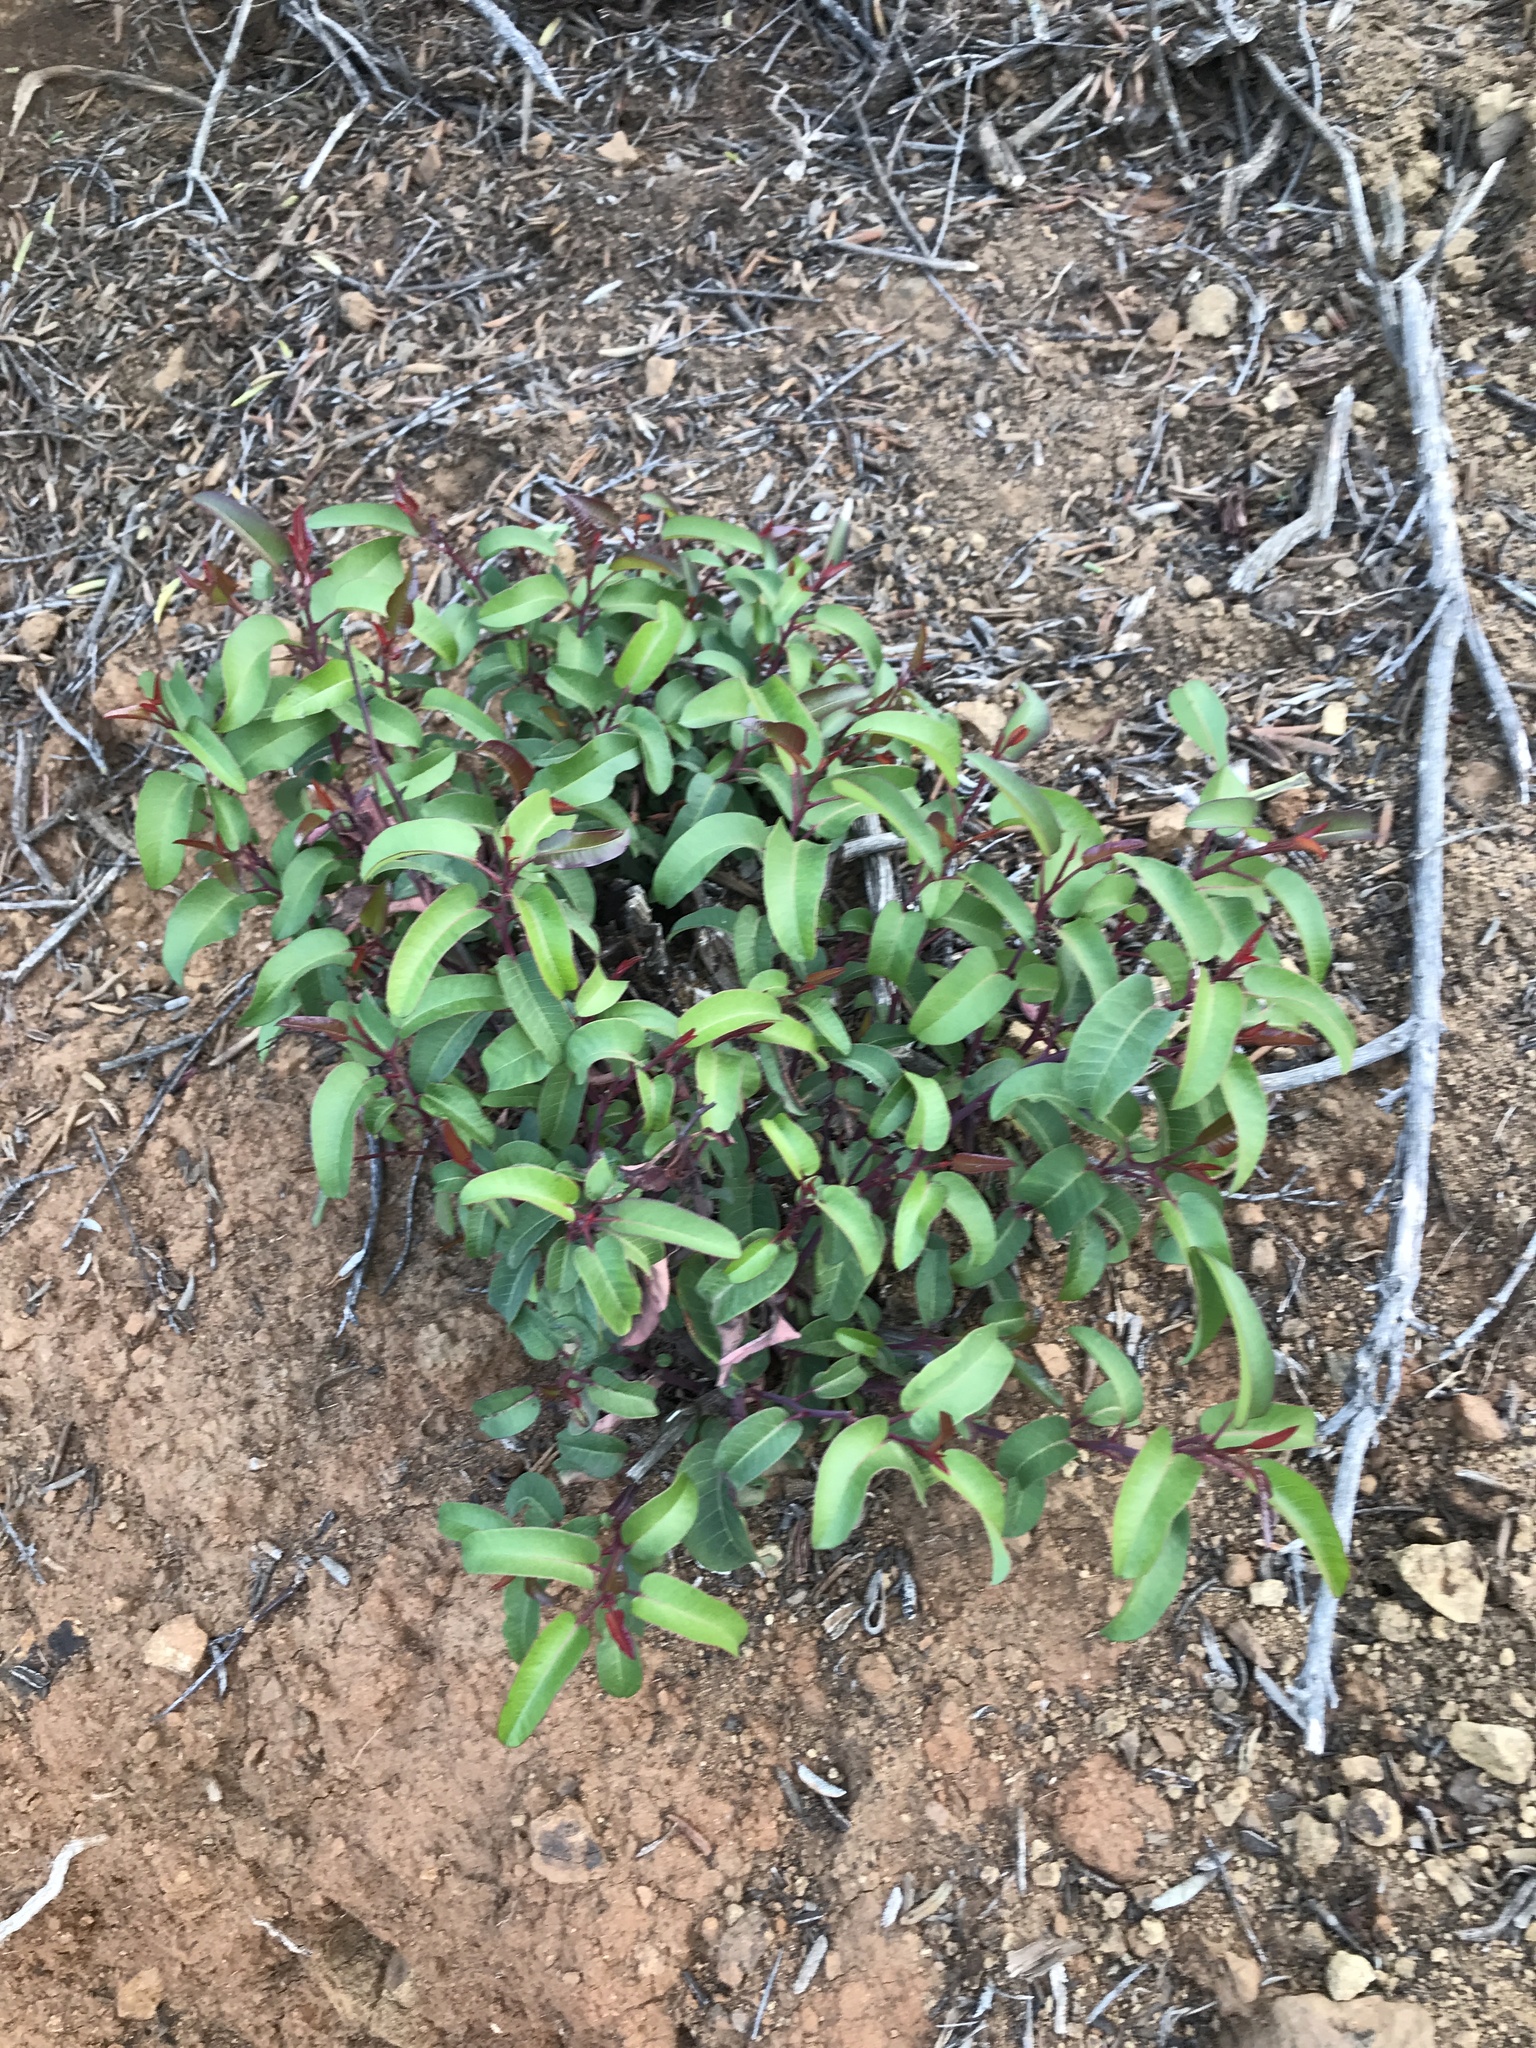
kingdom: Plantae
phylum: Tracheophyta
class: Magnoliopsida
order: Sapindales
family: Anacardiaceae
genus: Malosma
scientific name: Malosma laurina
